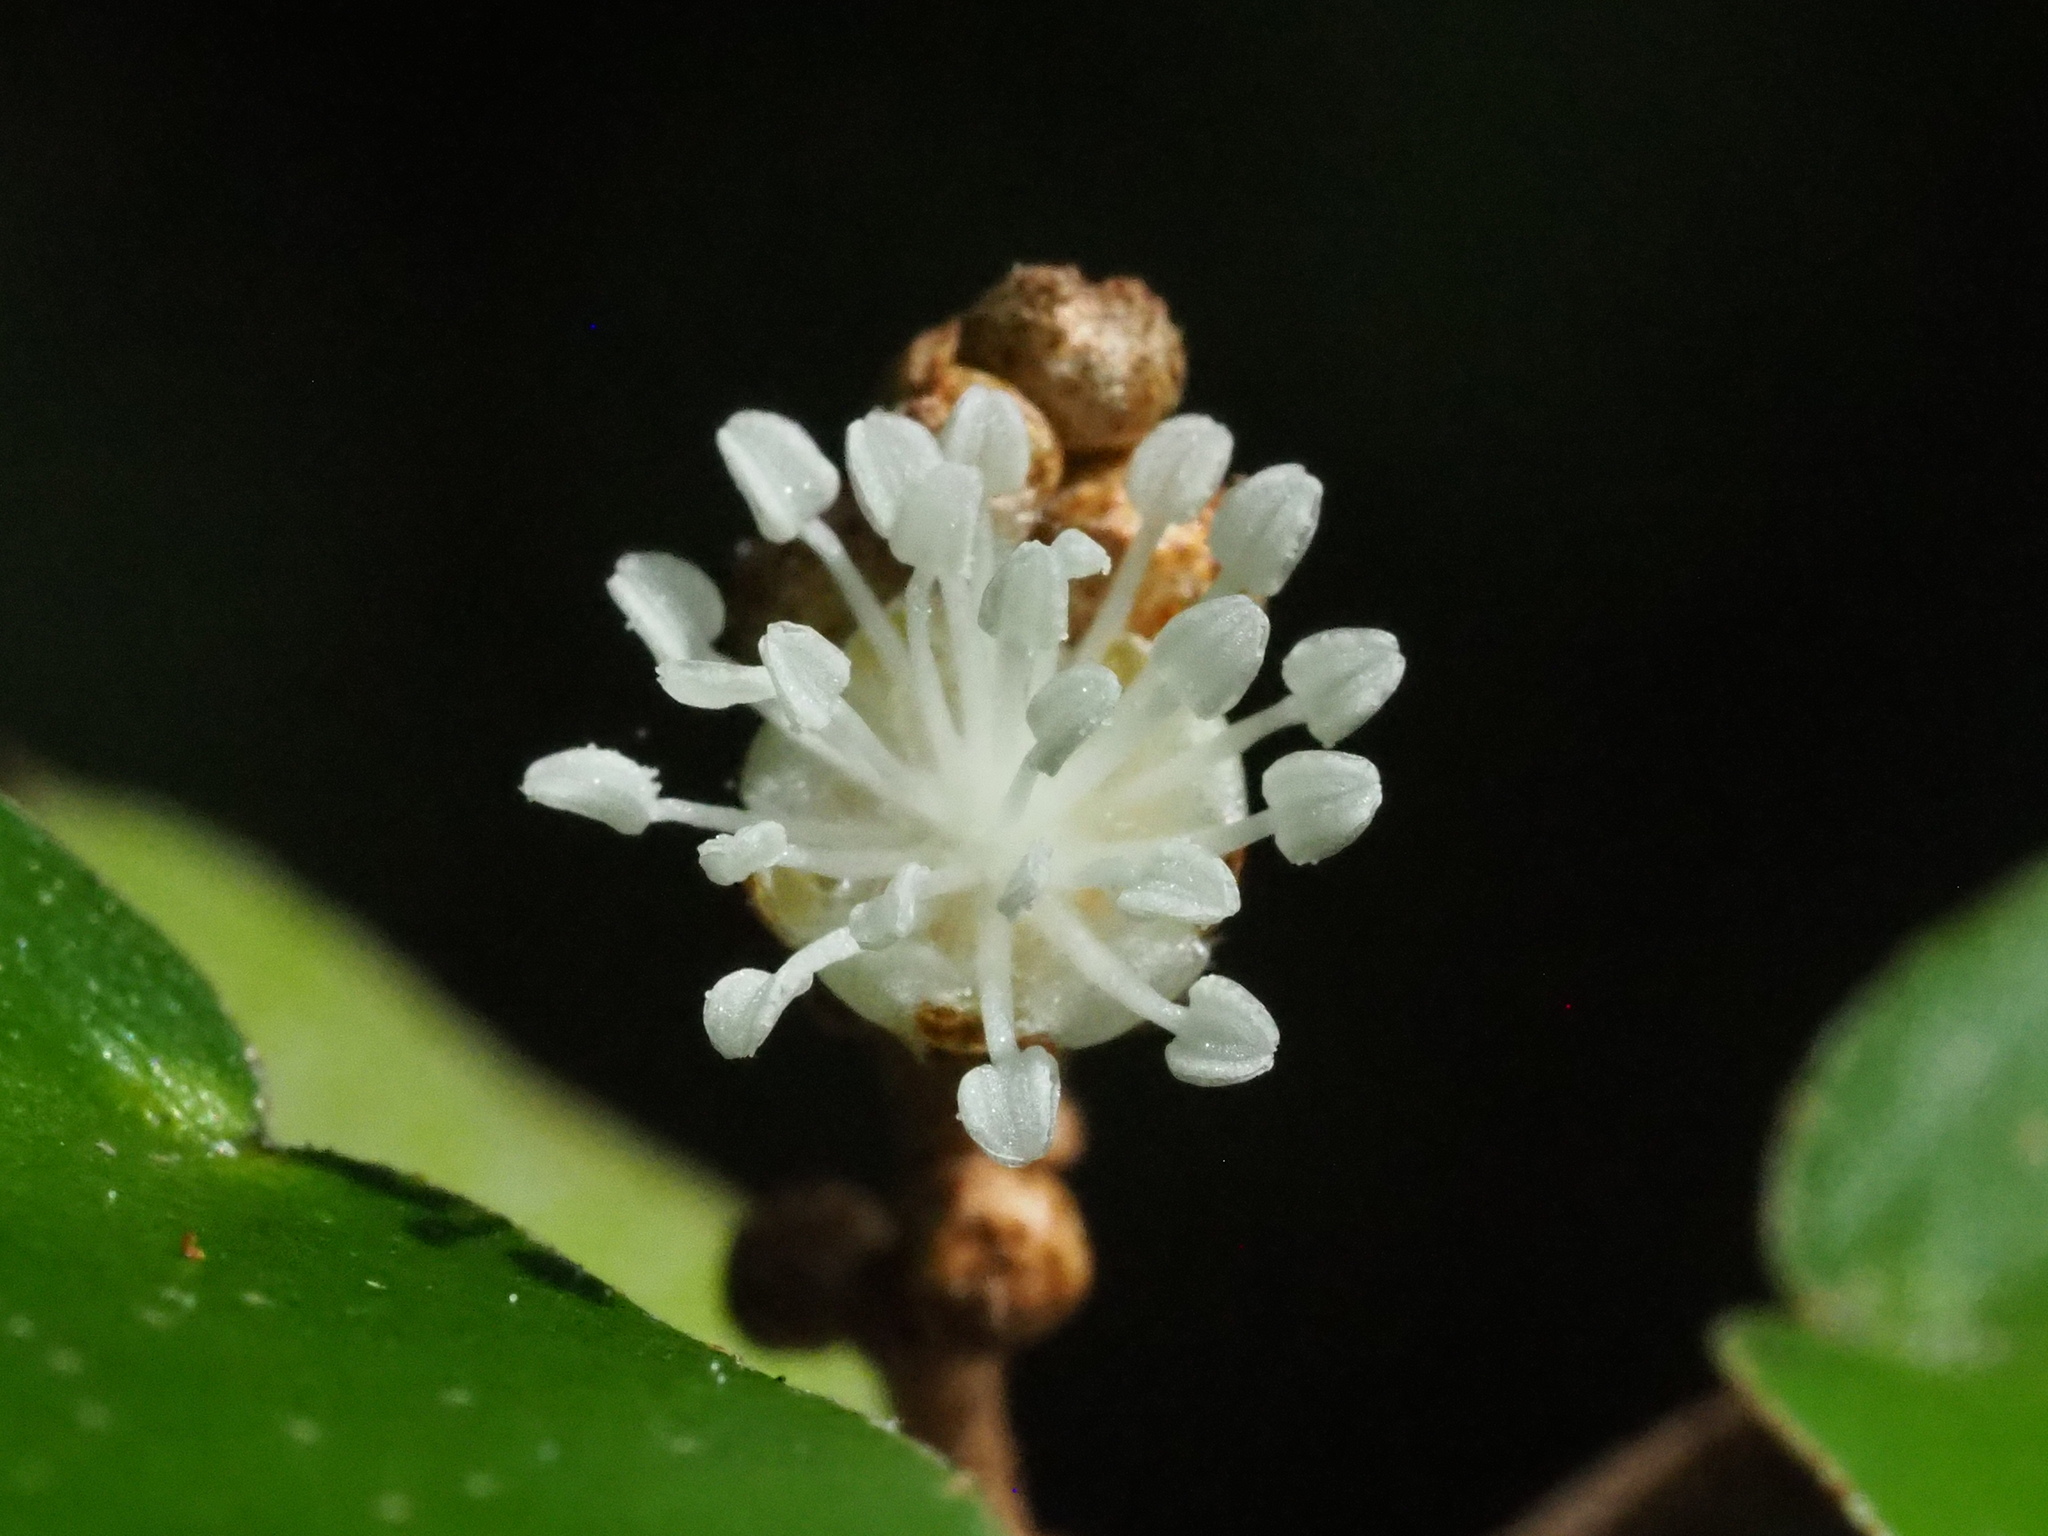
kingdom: Plantae
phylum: Tracheophyta
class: Magnoliopsida
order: Malpighiales
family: Euphorbiaceae
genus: Croton
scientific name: Croton cascarilloides
